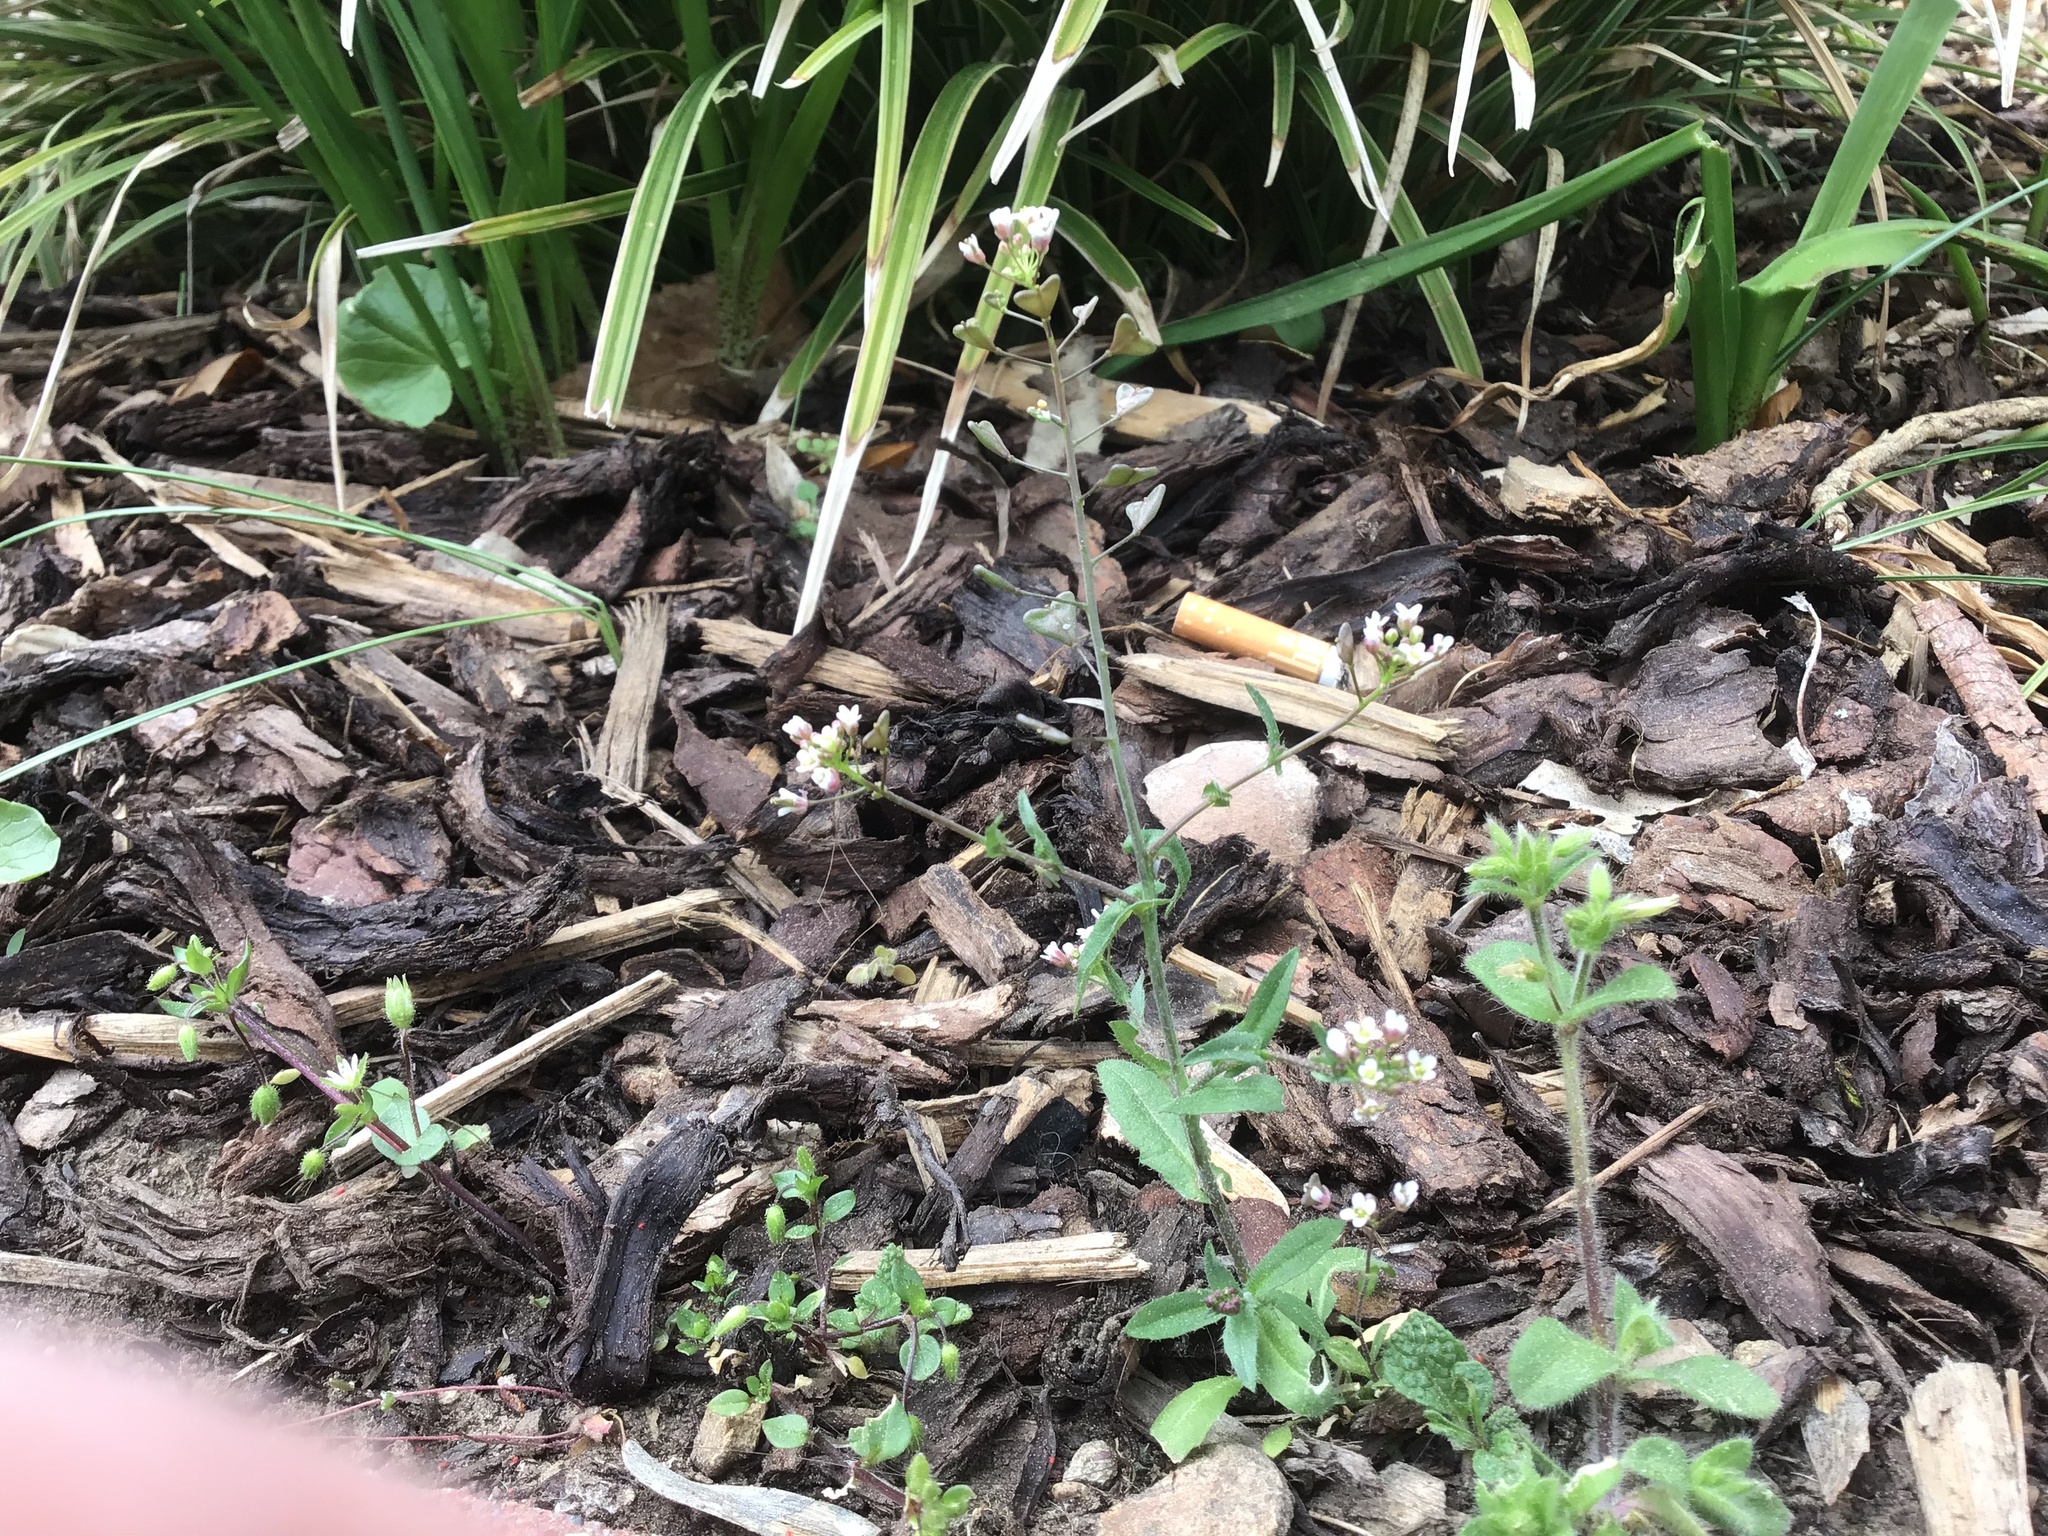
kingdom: Plantae
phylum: Tracheophyta
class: Magnoliopsida
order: Brassicales
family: Brassicaceae
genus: Capsella
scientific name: Capsella bursa-pastoris
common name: Shepherd's purse
